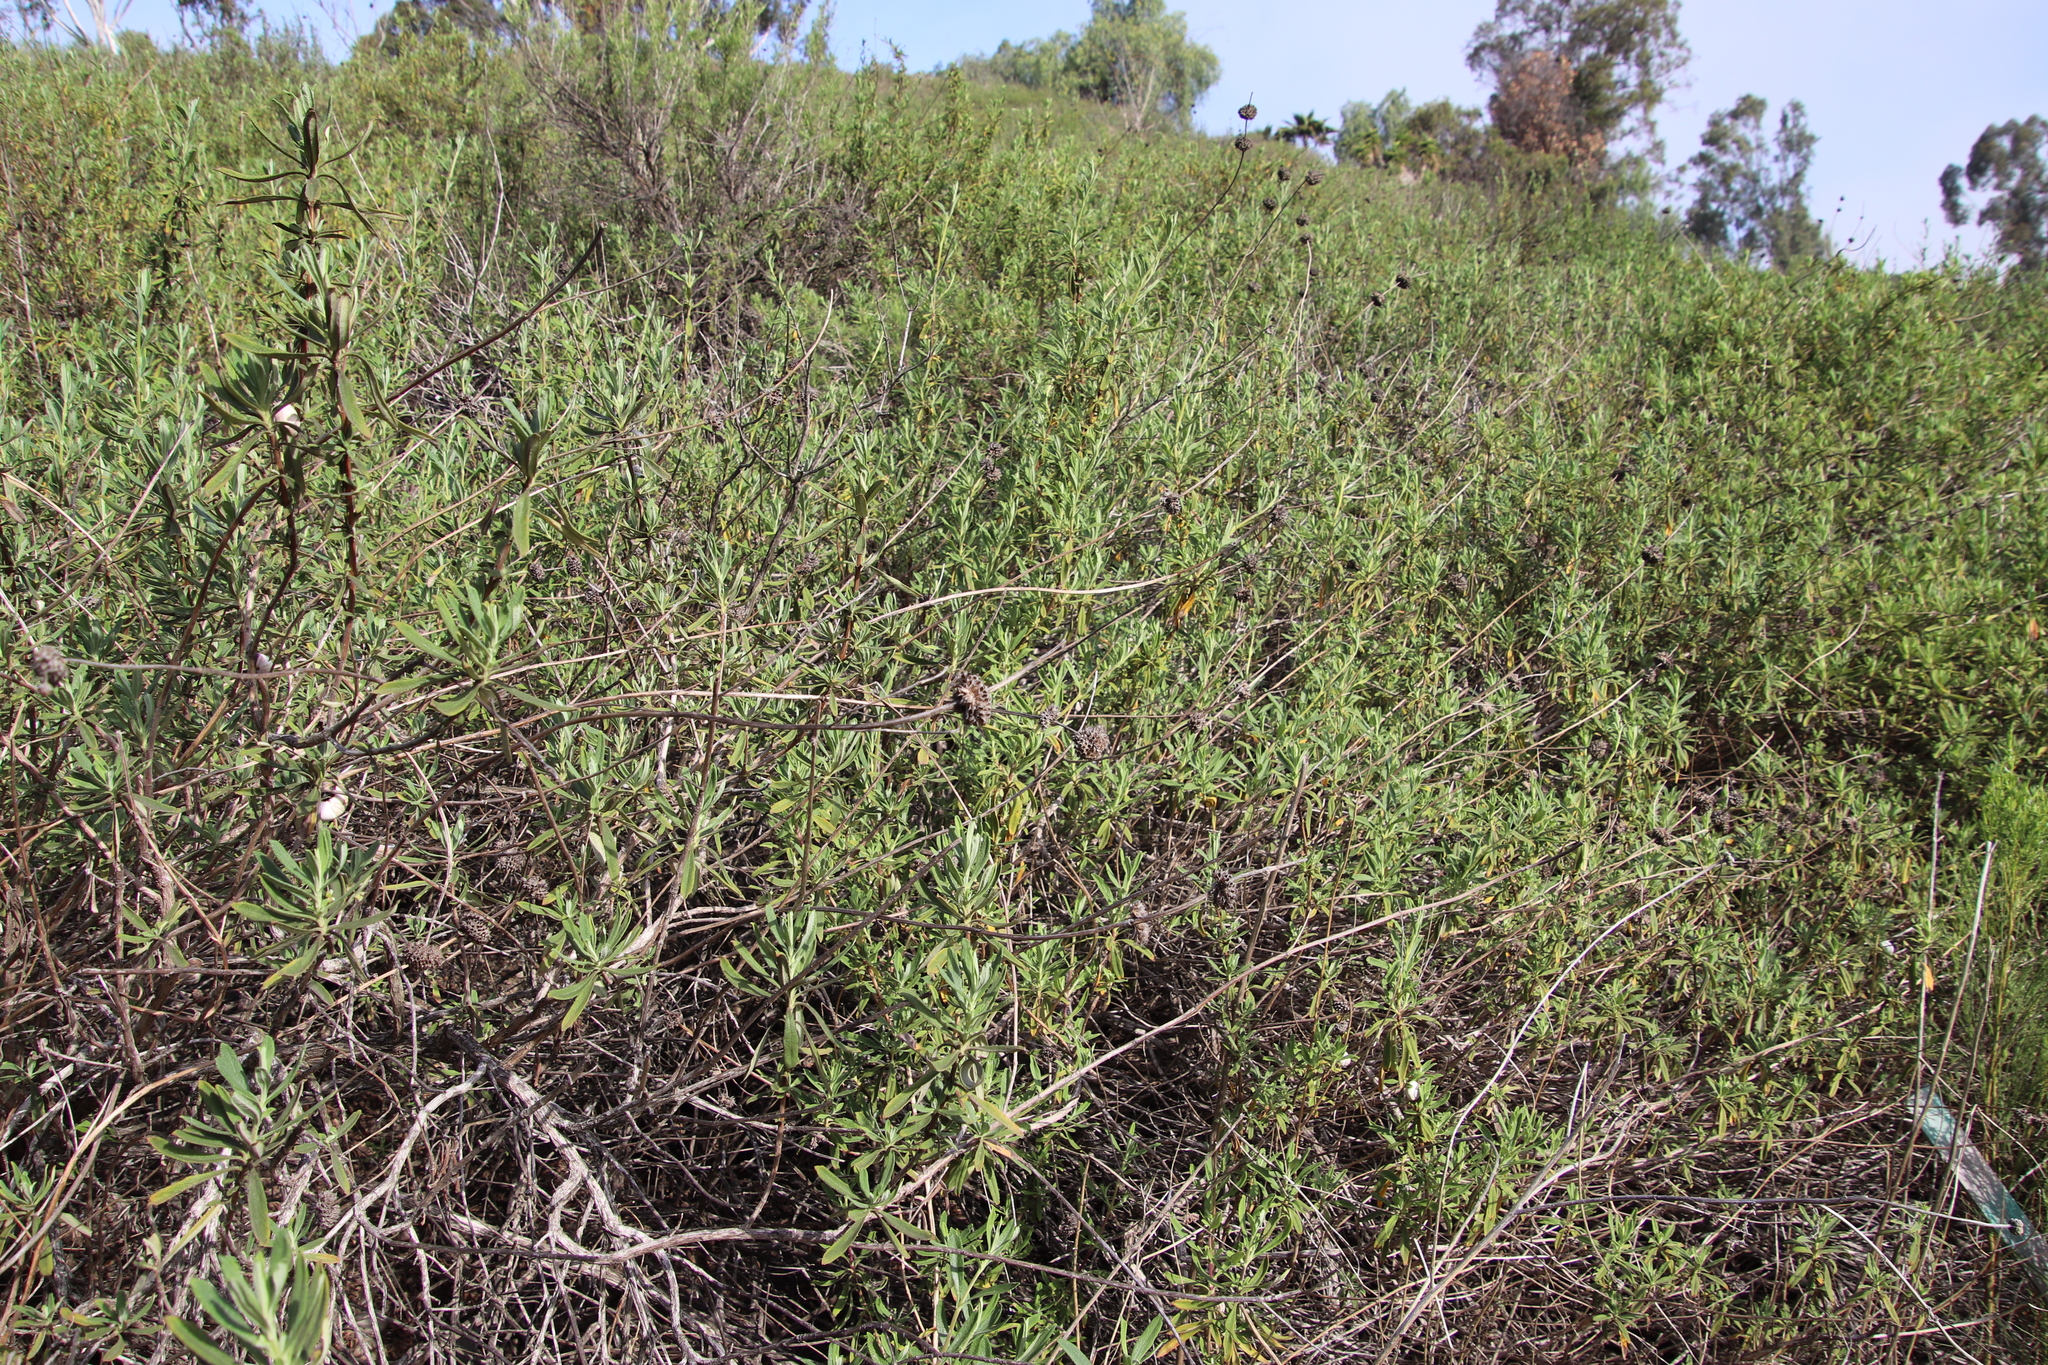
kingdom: Plantae
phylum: Tracheophyta
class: Magnoliopsida
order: Lamiales
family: Lamiaceae
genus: Salvia
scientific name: Salvia mellifera
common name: Black sage
